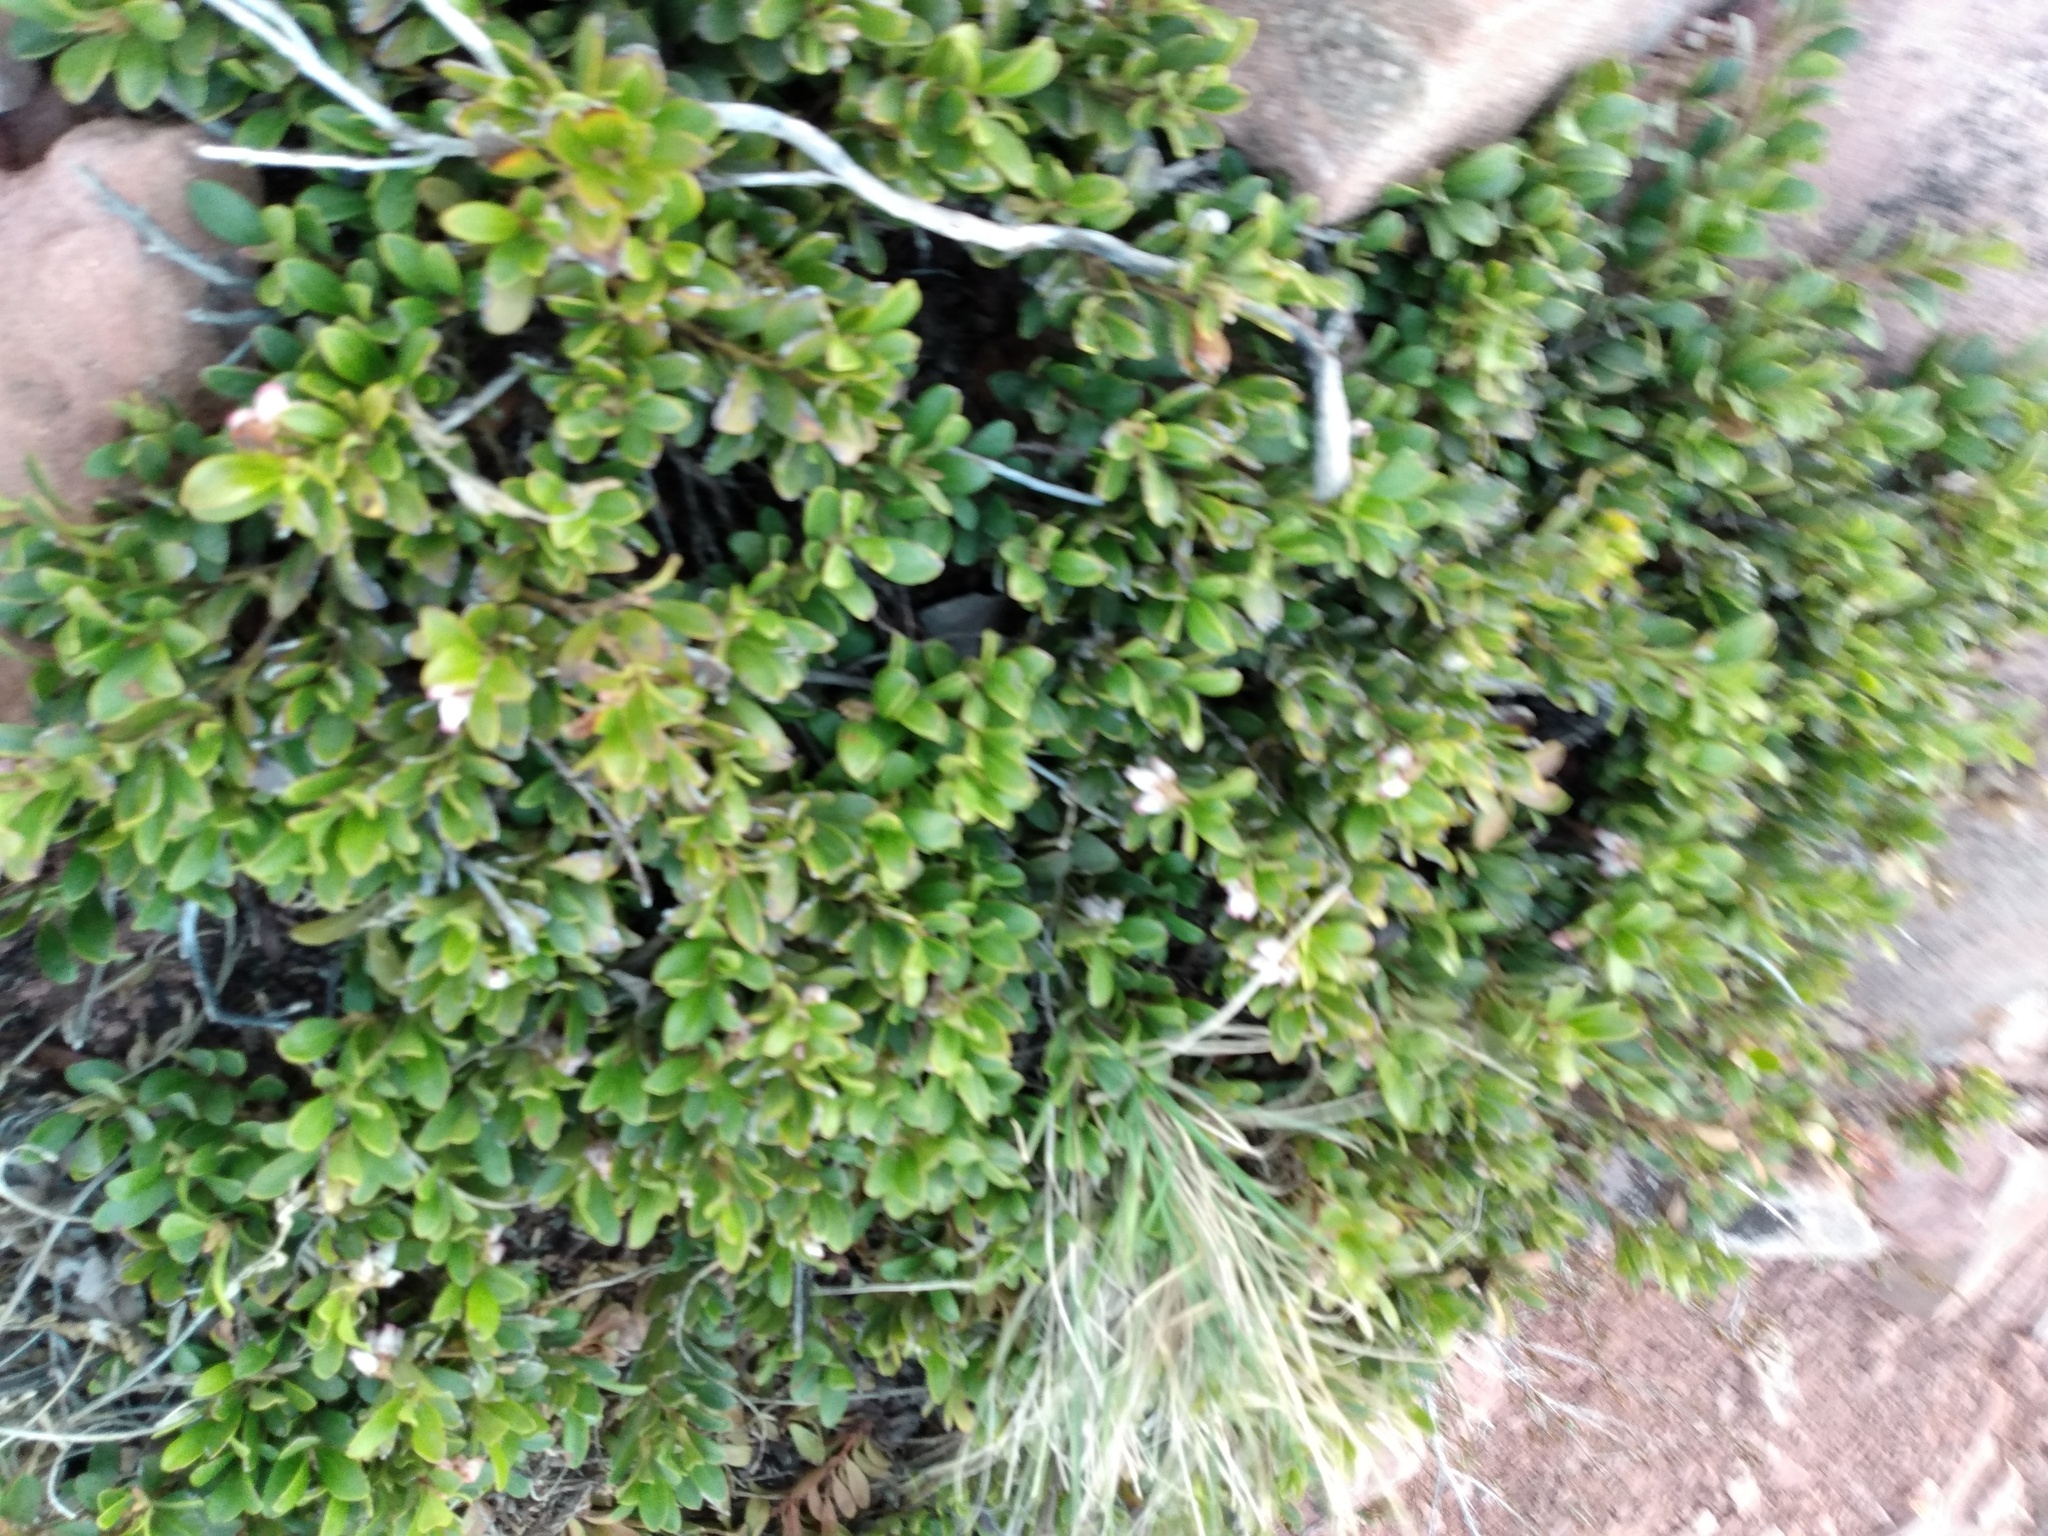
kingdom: Plantae
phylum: Tracheophyta
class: Magnoliopsida
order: Ericales
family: Ericaceae
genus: Arctostaphylos
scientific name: Arctostaphylos uva-ursi
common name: Bearberry
